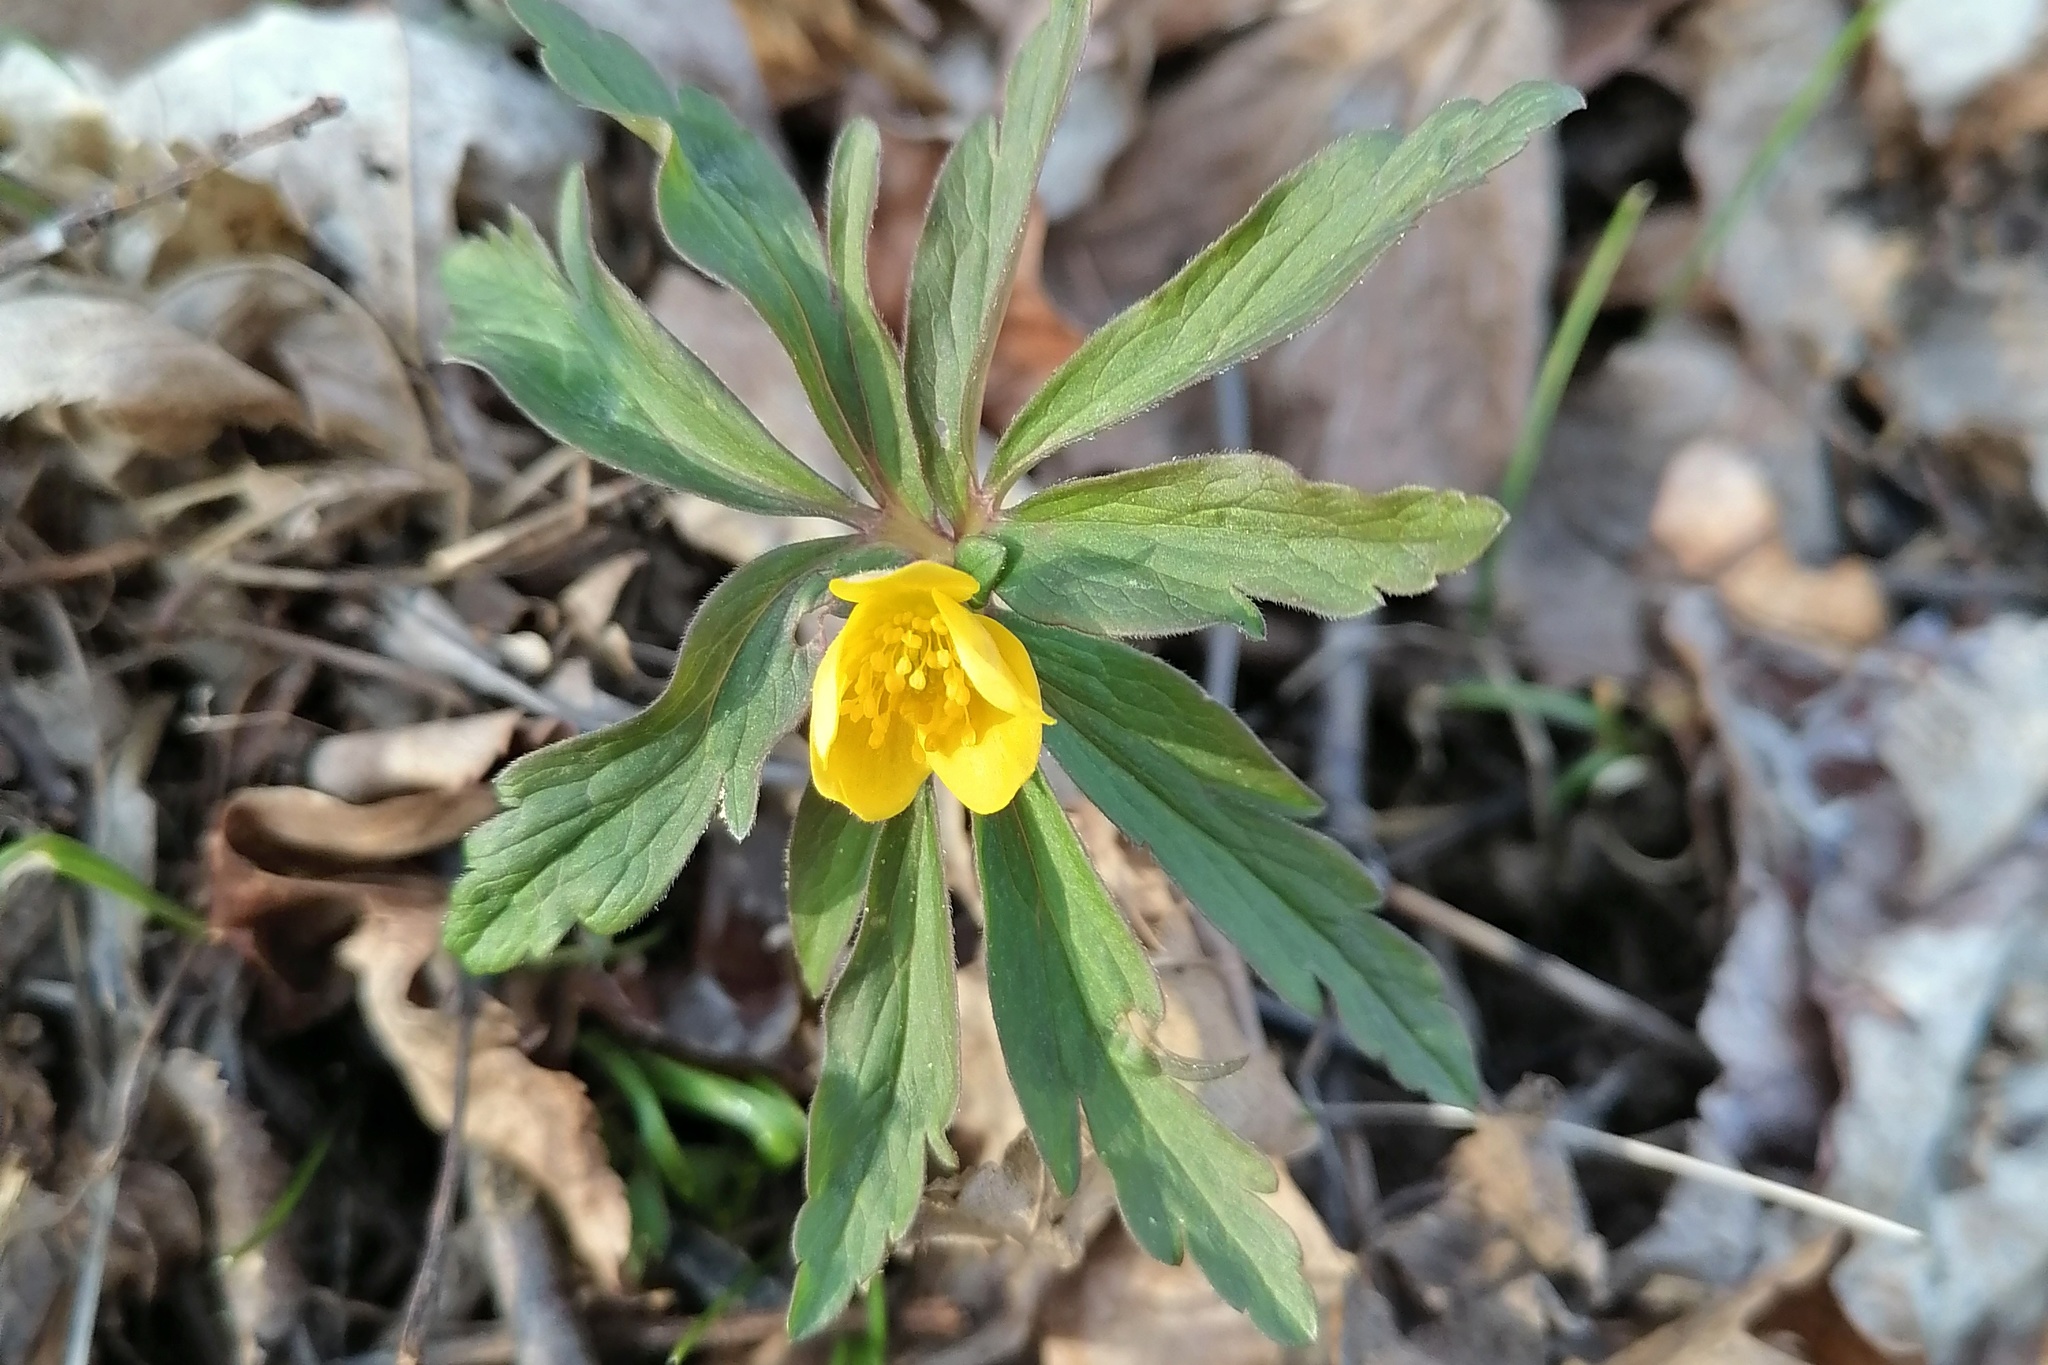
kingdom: Plantae
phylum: Tracheophyta
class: Magnoliopsida
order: Ranunculales
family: Ranunculaceae
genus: Anemone
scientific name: Anemone ranunculoides
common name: Yellow anemone
